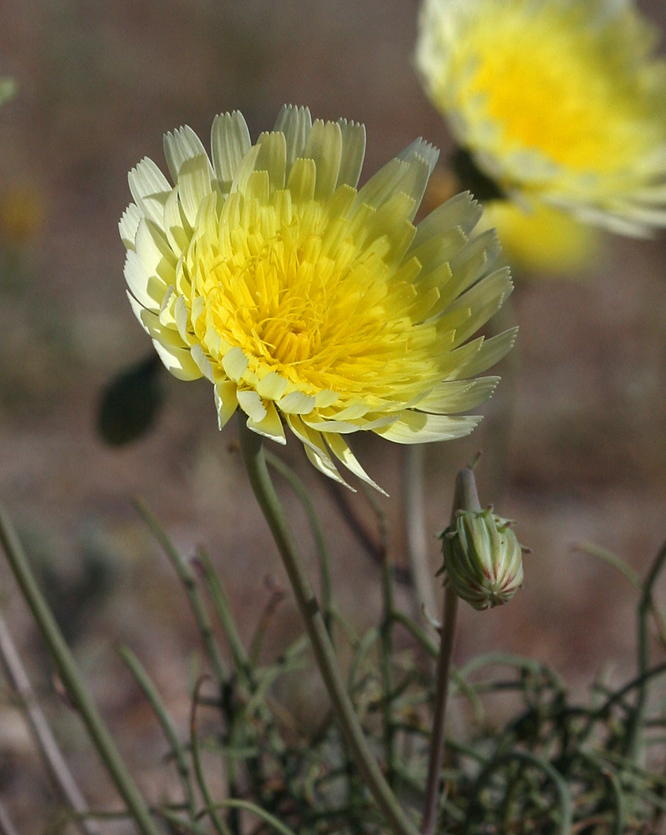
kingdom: Plantae
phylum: Tracheophyta
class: Magnoliopsida
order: Asterales
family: Asteraceae
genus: Malacothrix
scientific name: Malacothrix glabrata
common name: Smooth desert-dandelion
